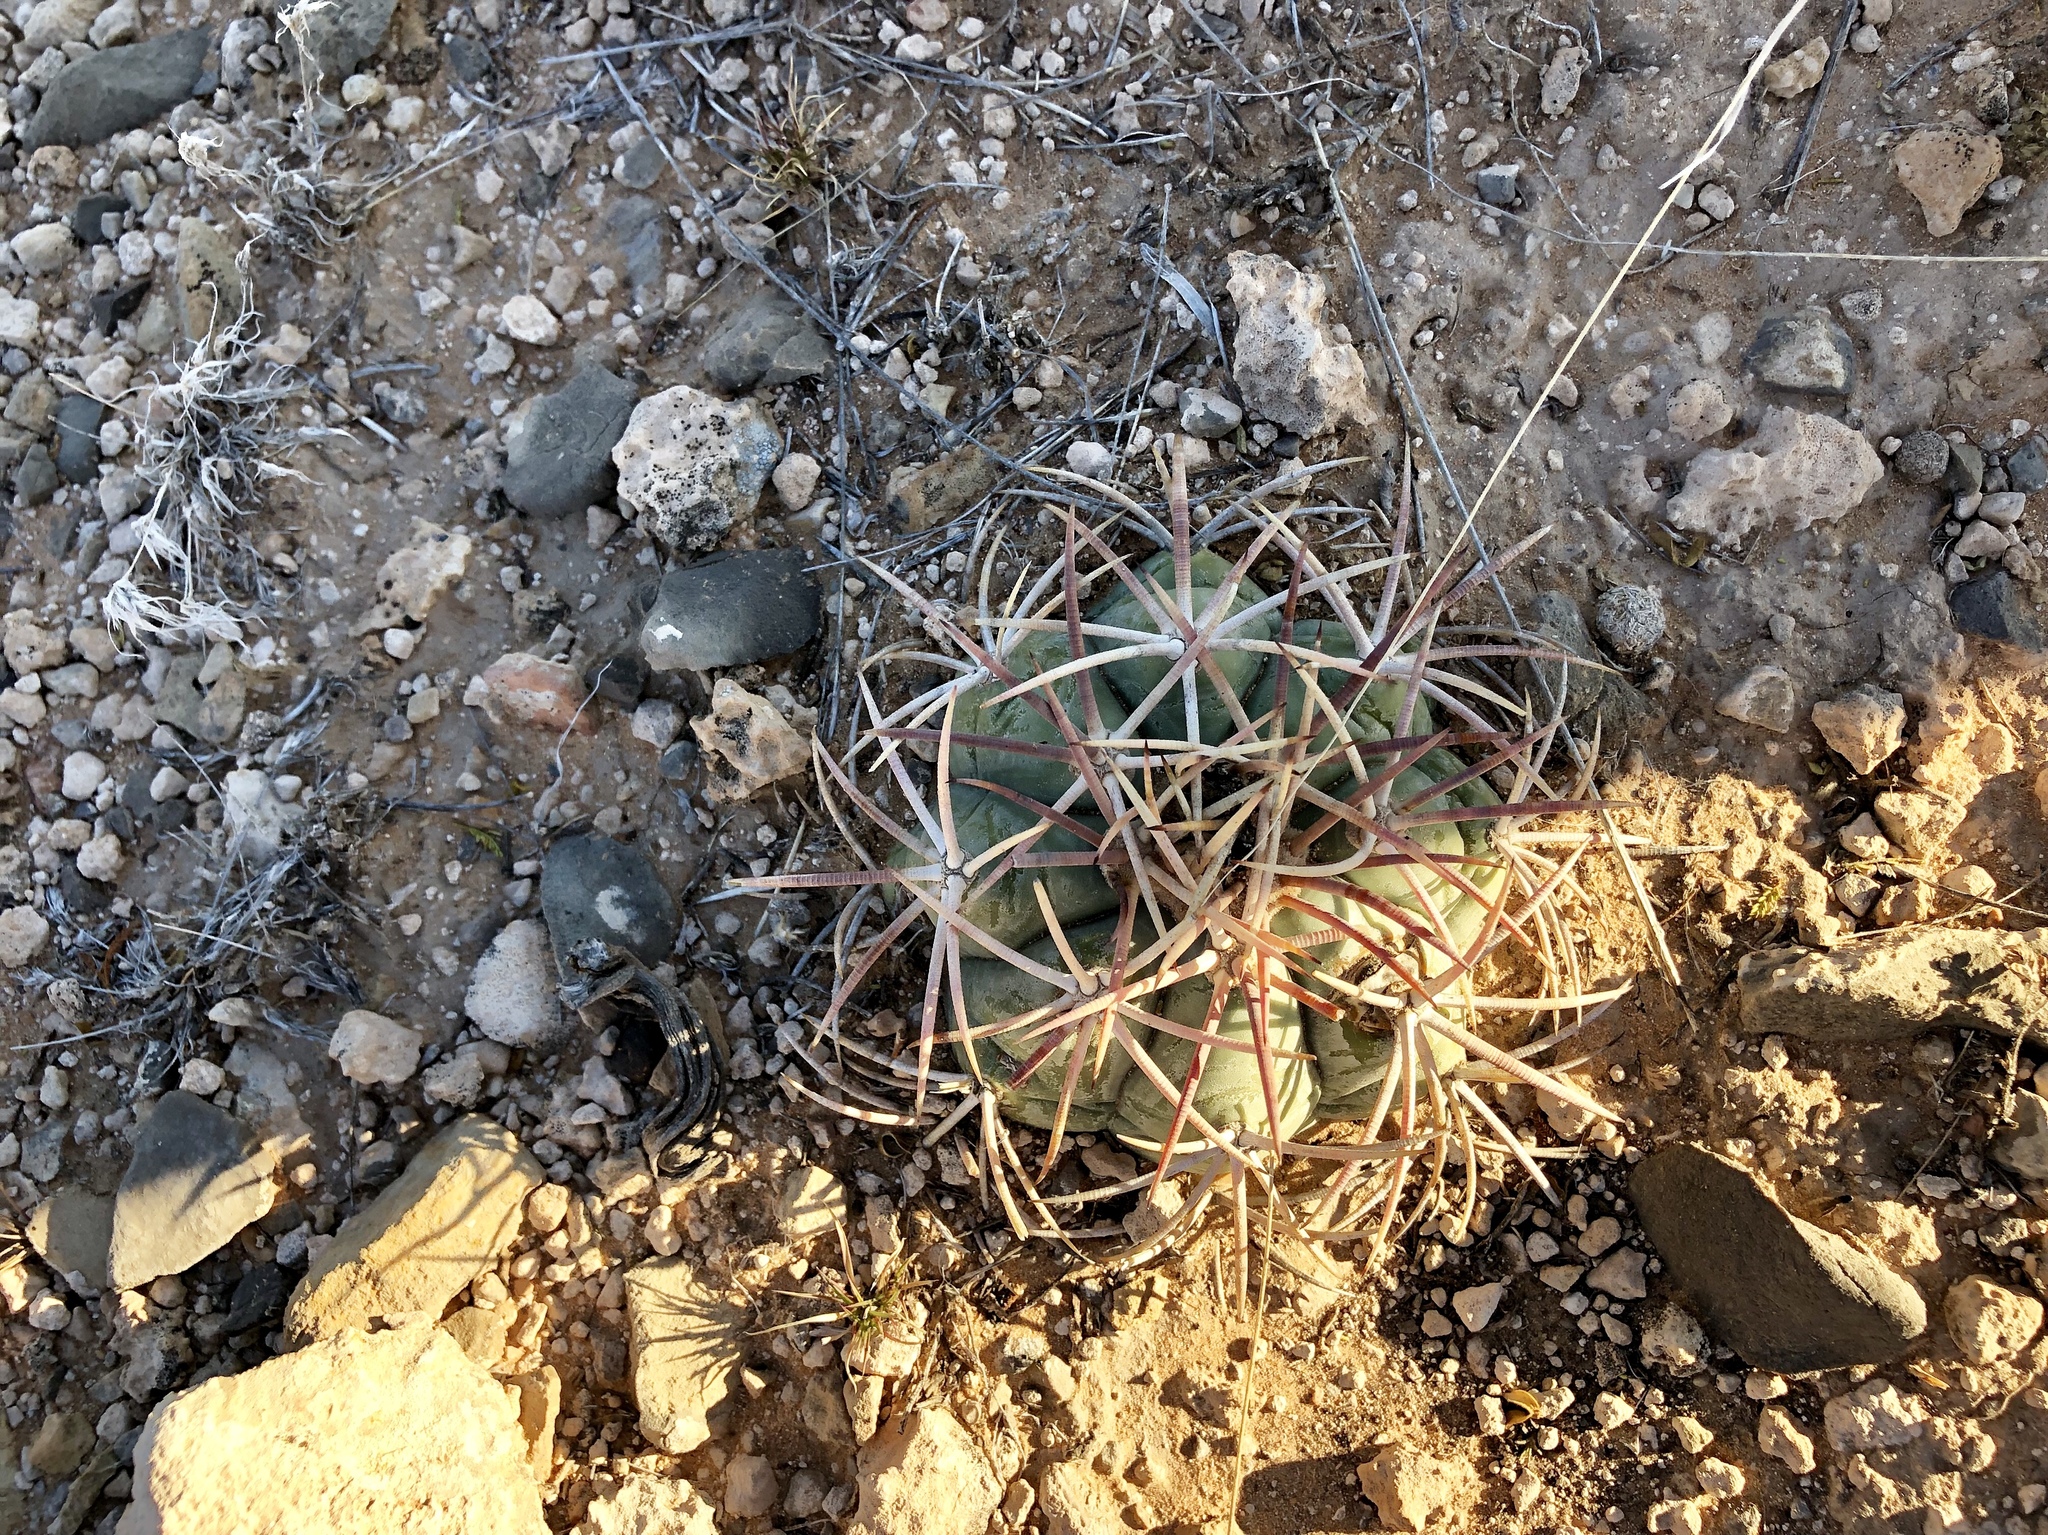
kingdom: Plantae
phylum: Tracheophyta
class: Magnoliopsida
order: Caryophyllales
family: Cactaceae
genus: Echinocactus
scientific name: Echinocactus horizonthalonius
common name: Devilshead
